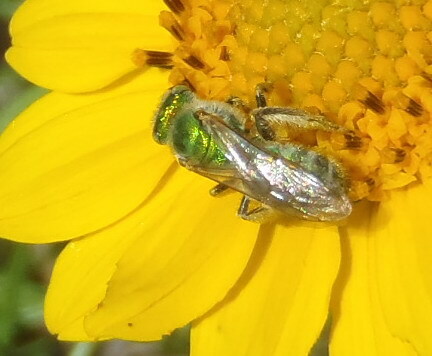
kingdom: Animalia
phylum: Arthropoda
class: Insecta
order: Hymenoptera
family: Halictidae
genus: Agapostemon
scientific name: Agapostemon
